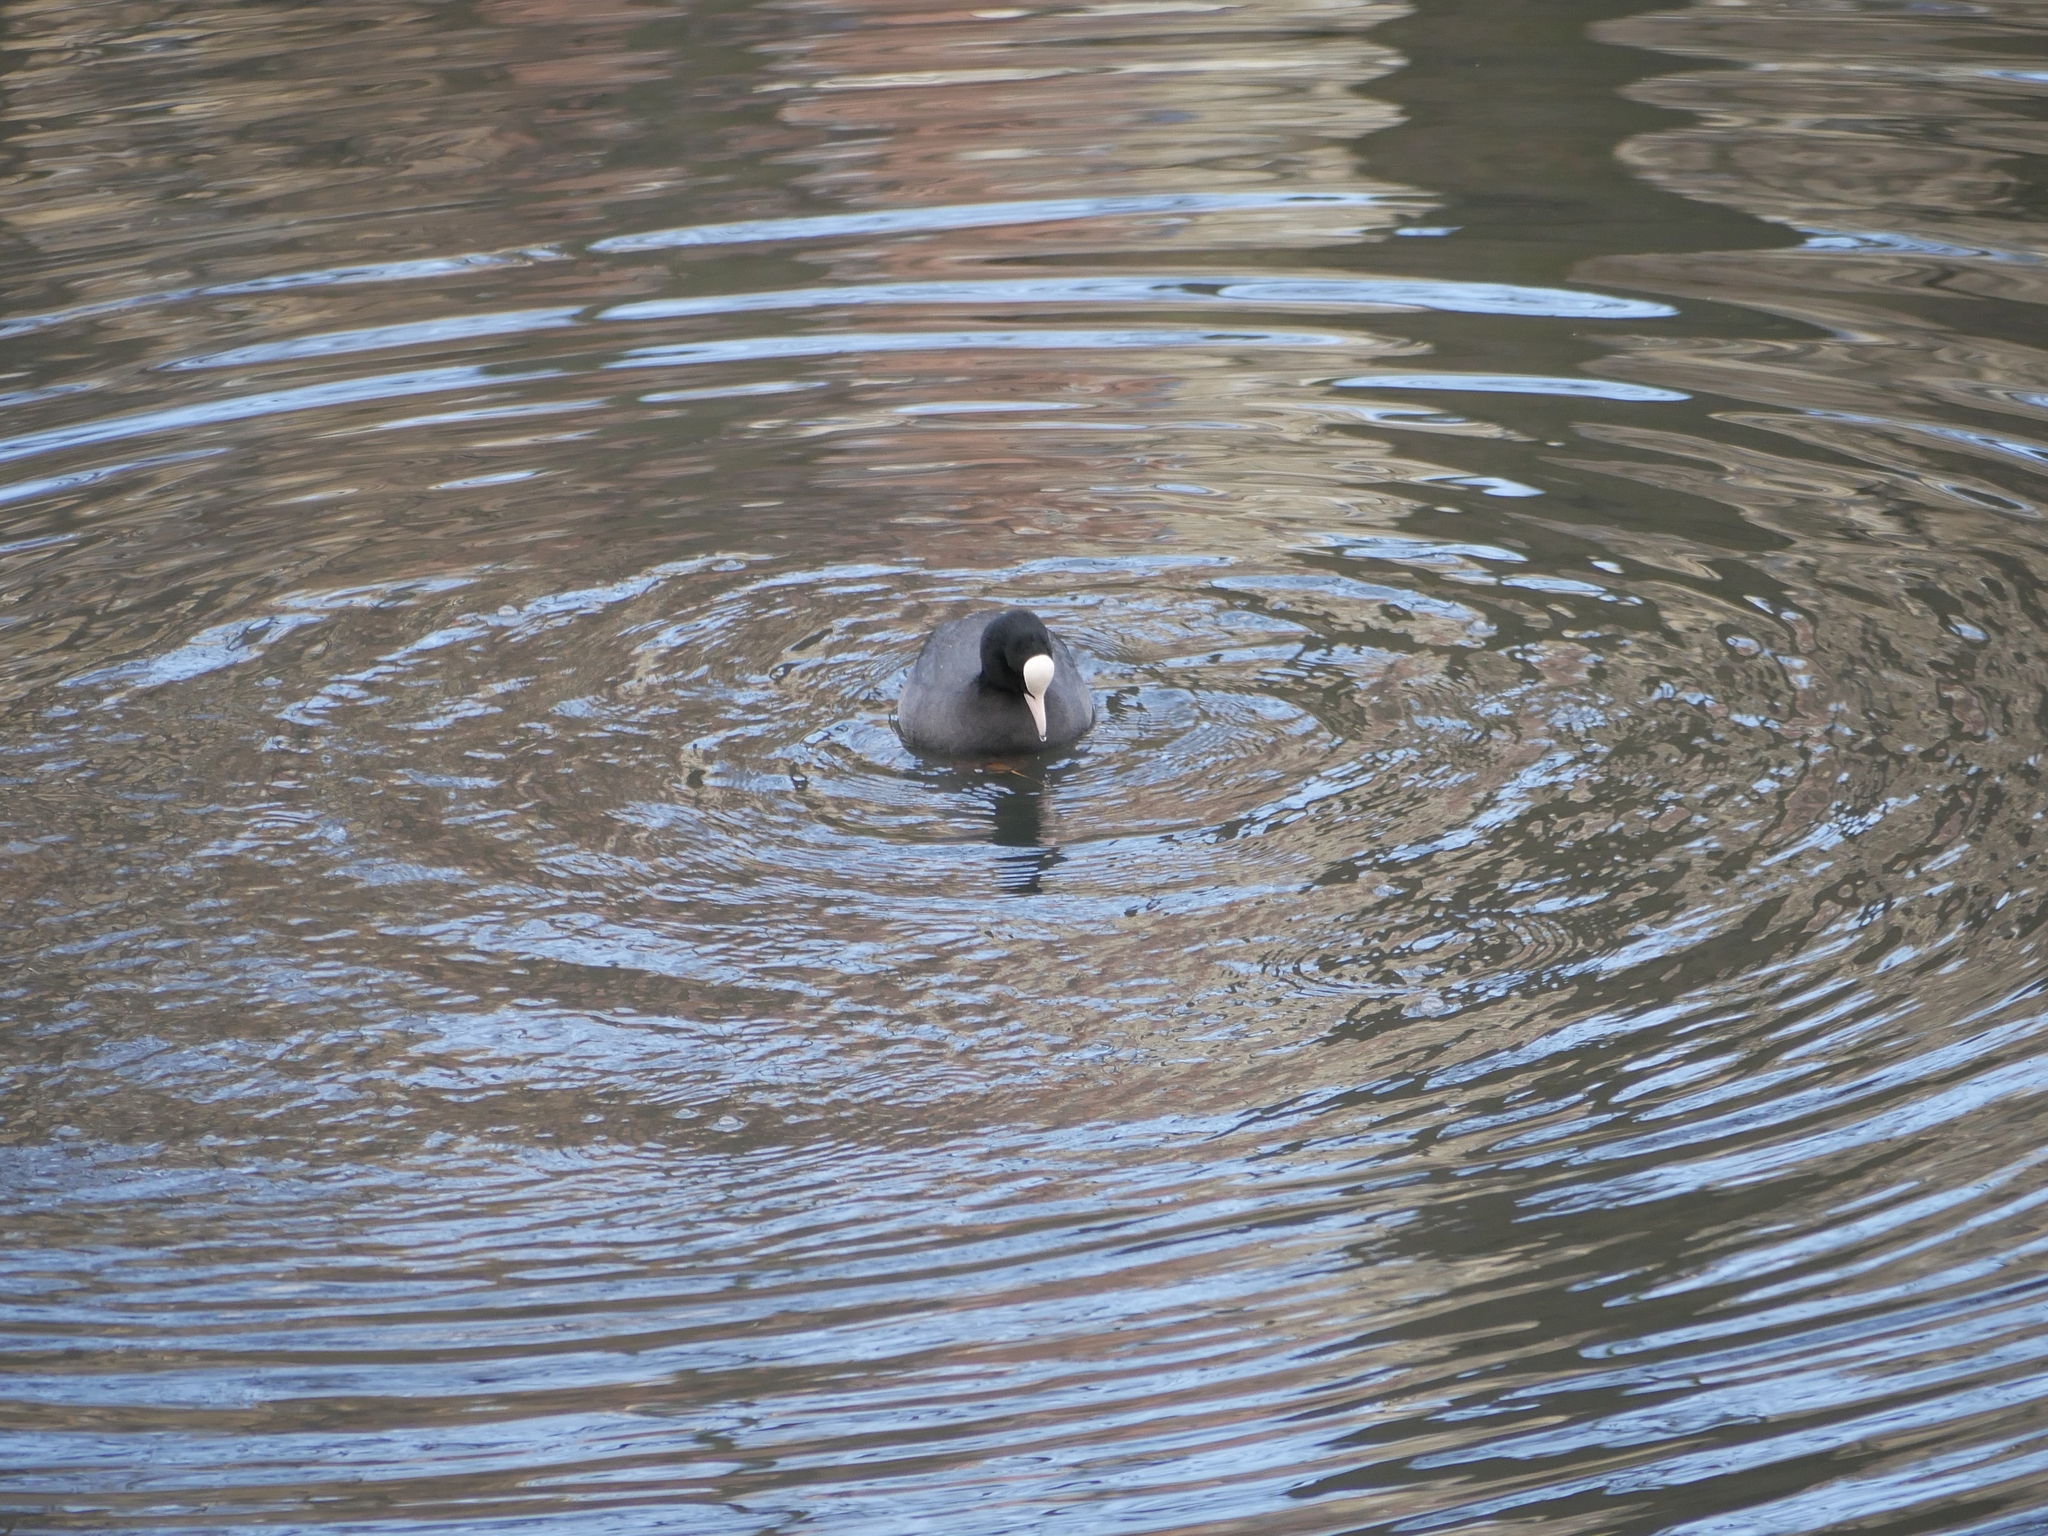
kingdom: Animalia
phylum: Chordata
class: Aves
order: Gruiformes
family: Rallidae
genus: Fulica
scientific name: Fulica atra
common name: Eurasian coot
